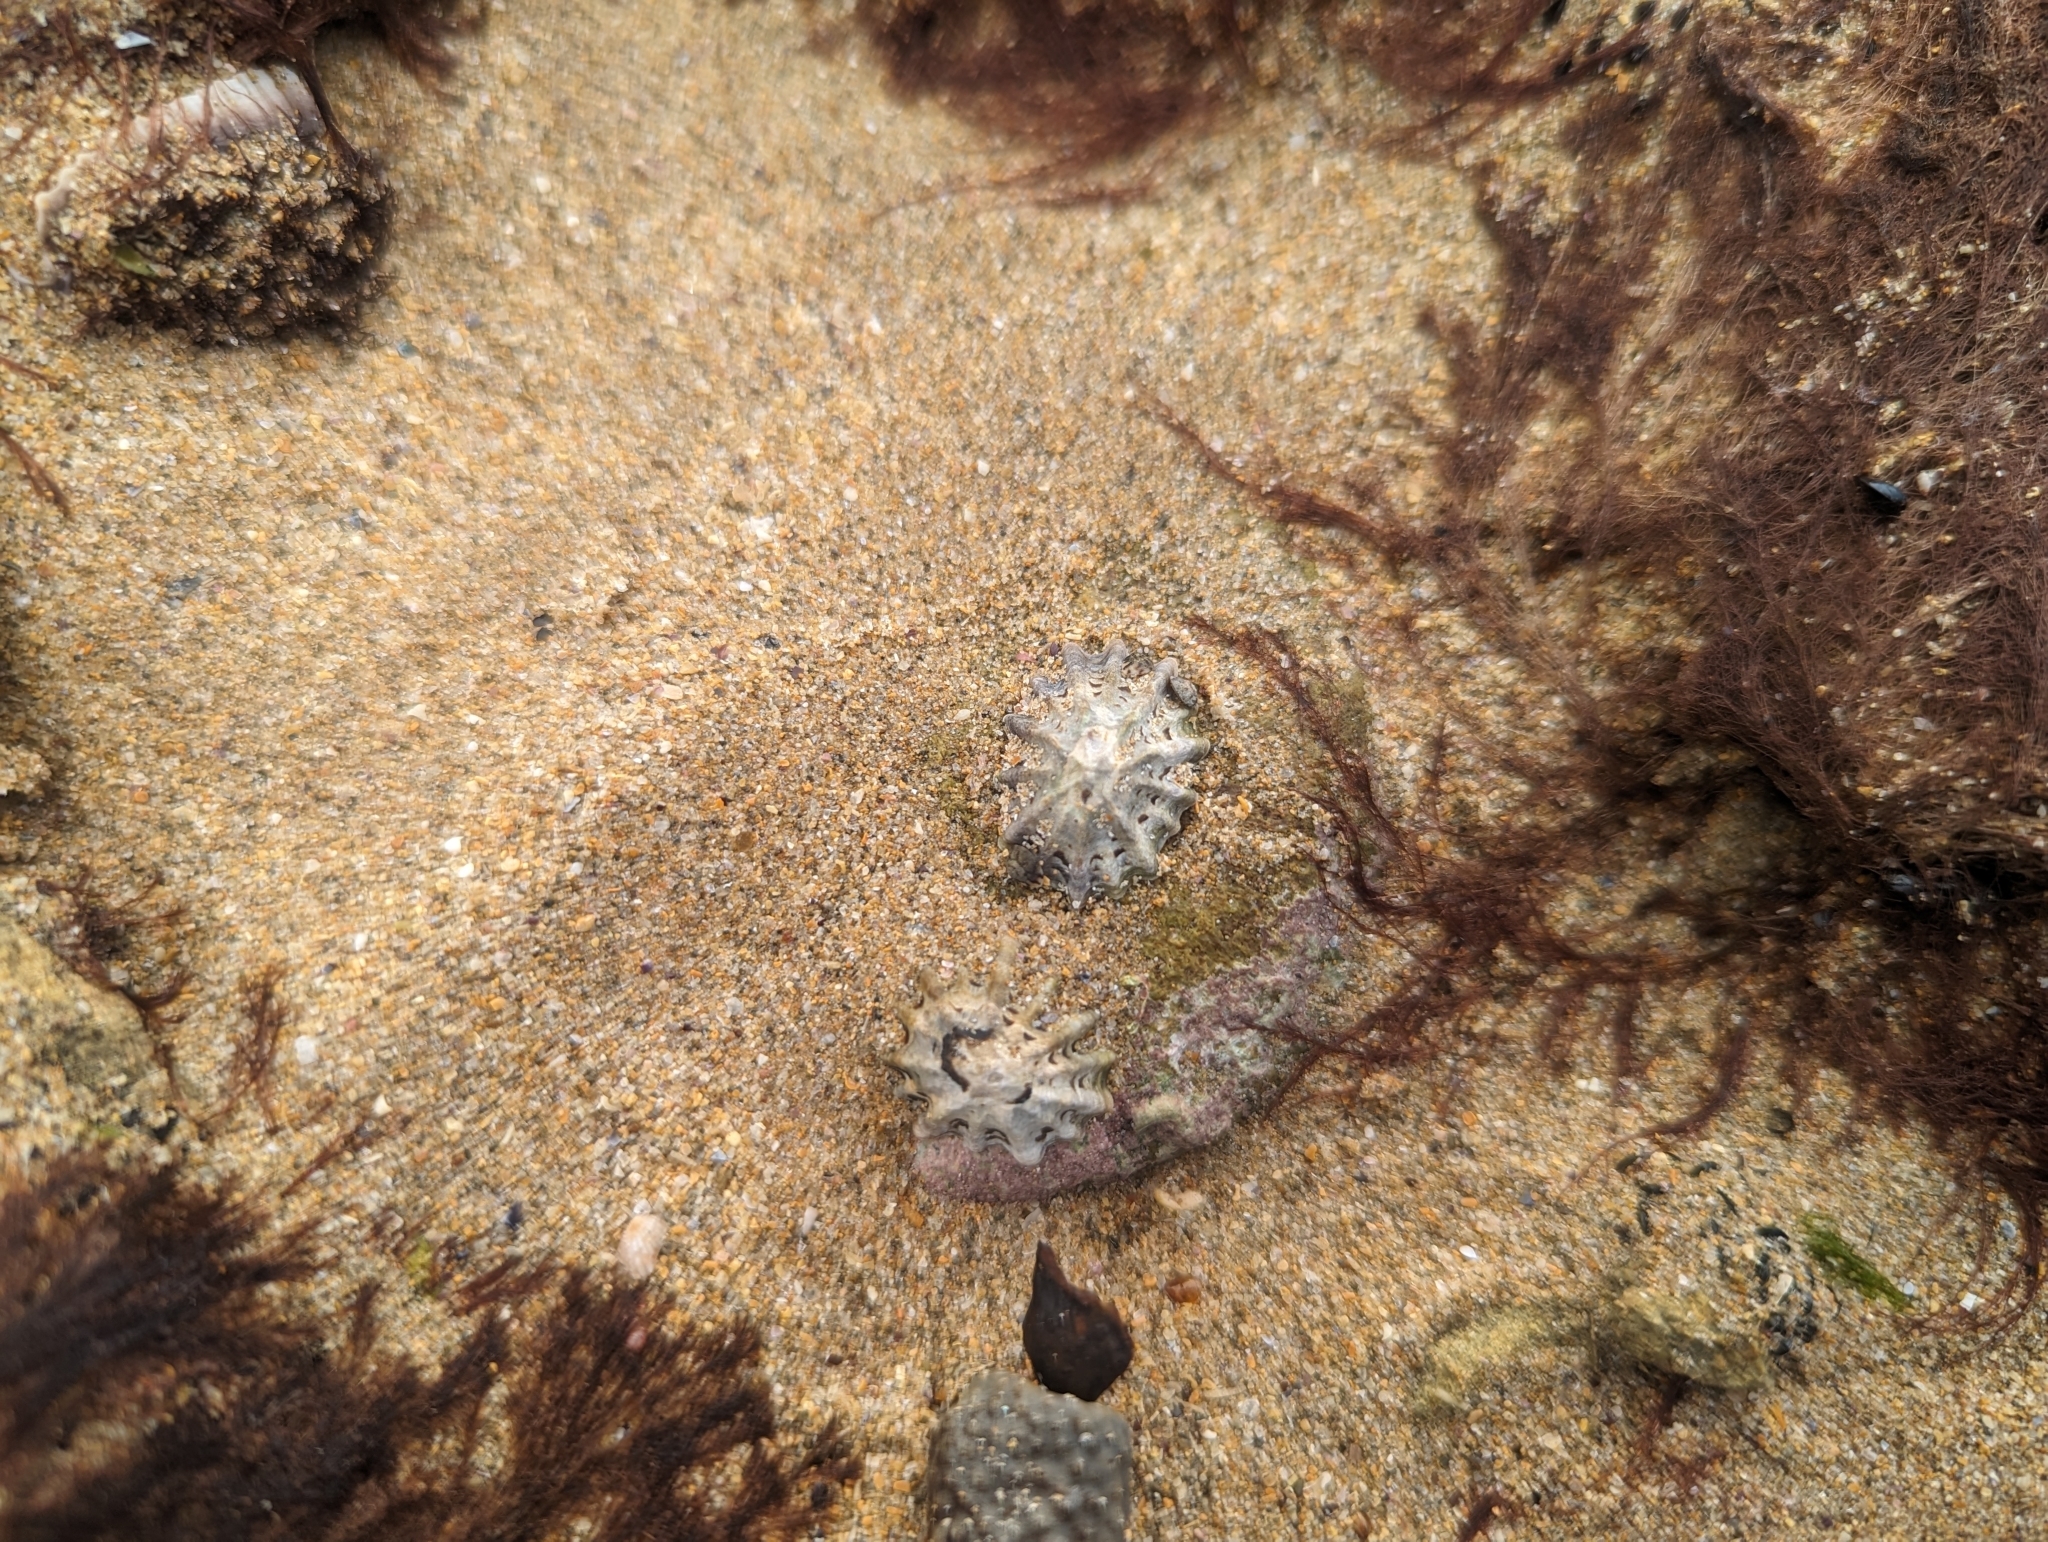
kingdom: Animalia
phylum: Mollusca
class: Gastropoda
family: Lottiidae
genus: Patelloida
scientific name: Patelloida alticostata
